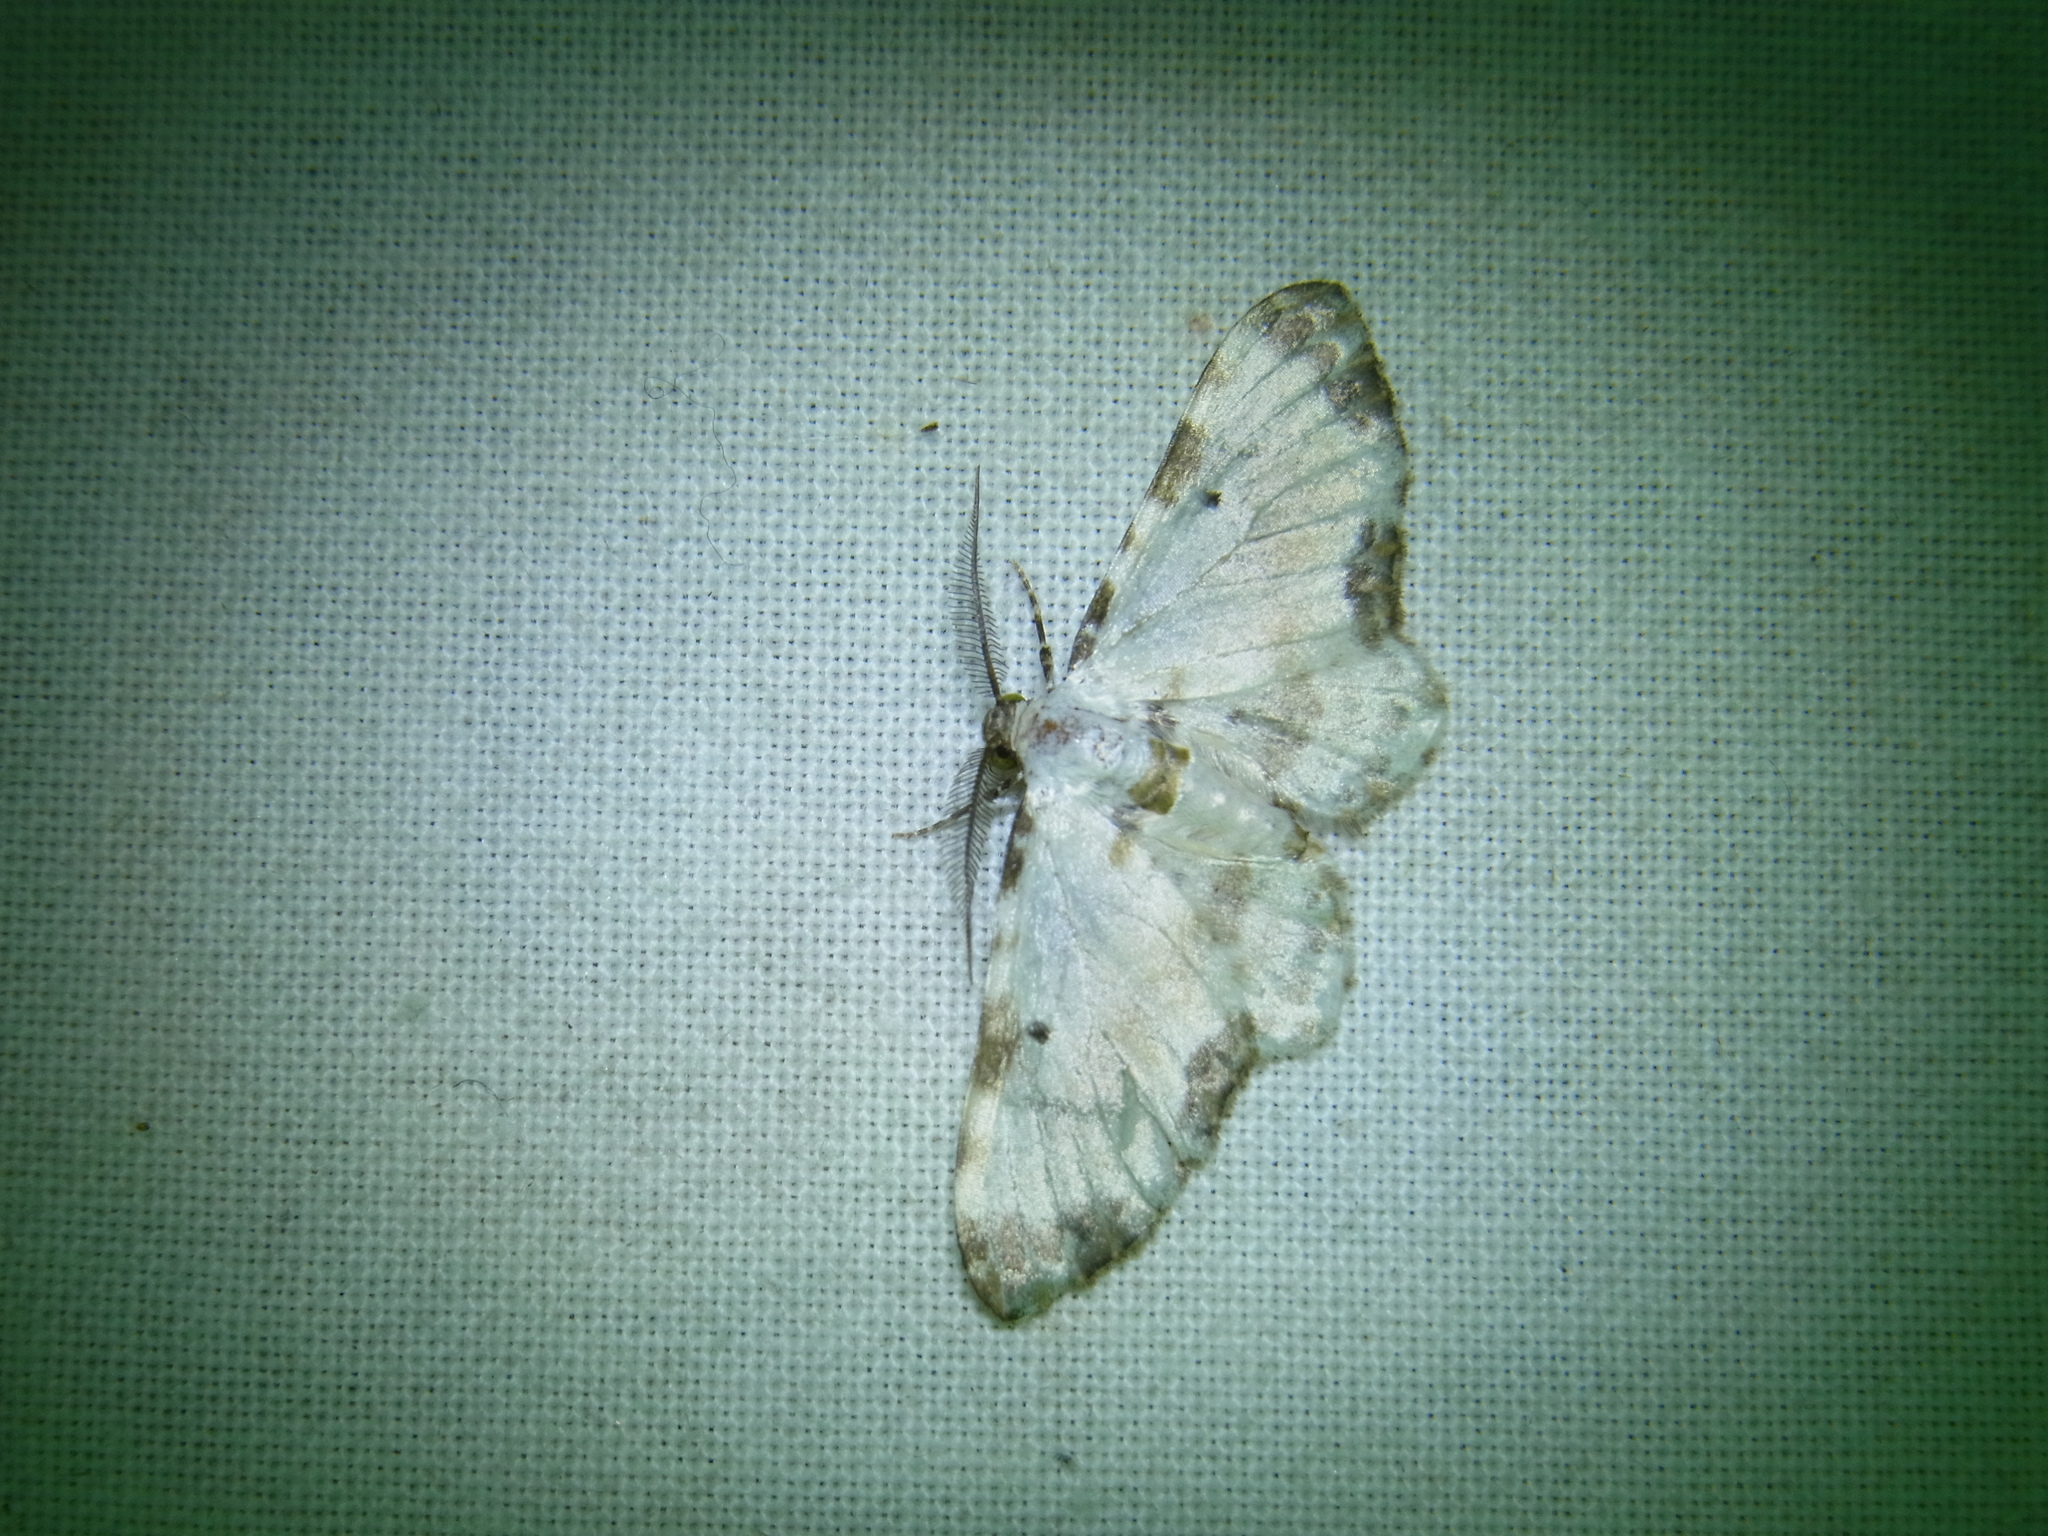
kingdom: Animalia
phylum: Arthropoda
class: Insecta
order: Lepidoptera
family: Geometridae
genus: Tyloptera
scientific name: Tyloptera bella
